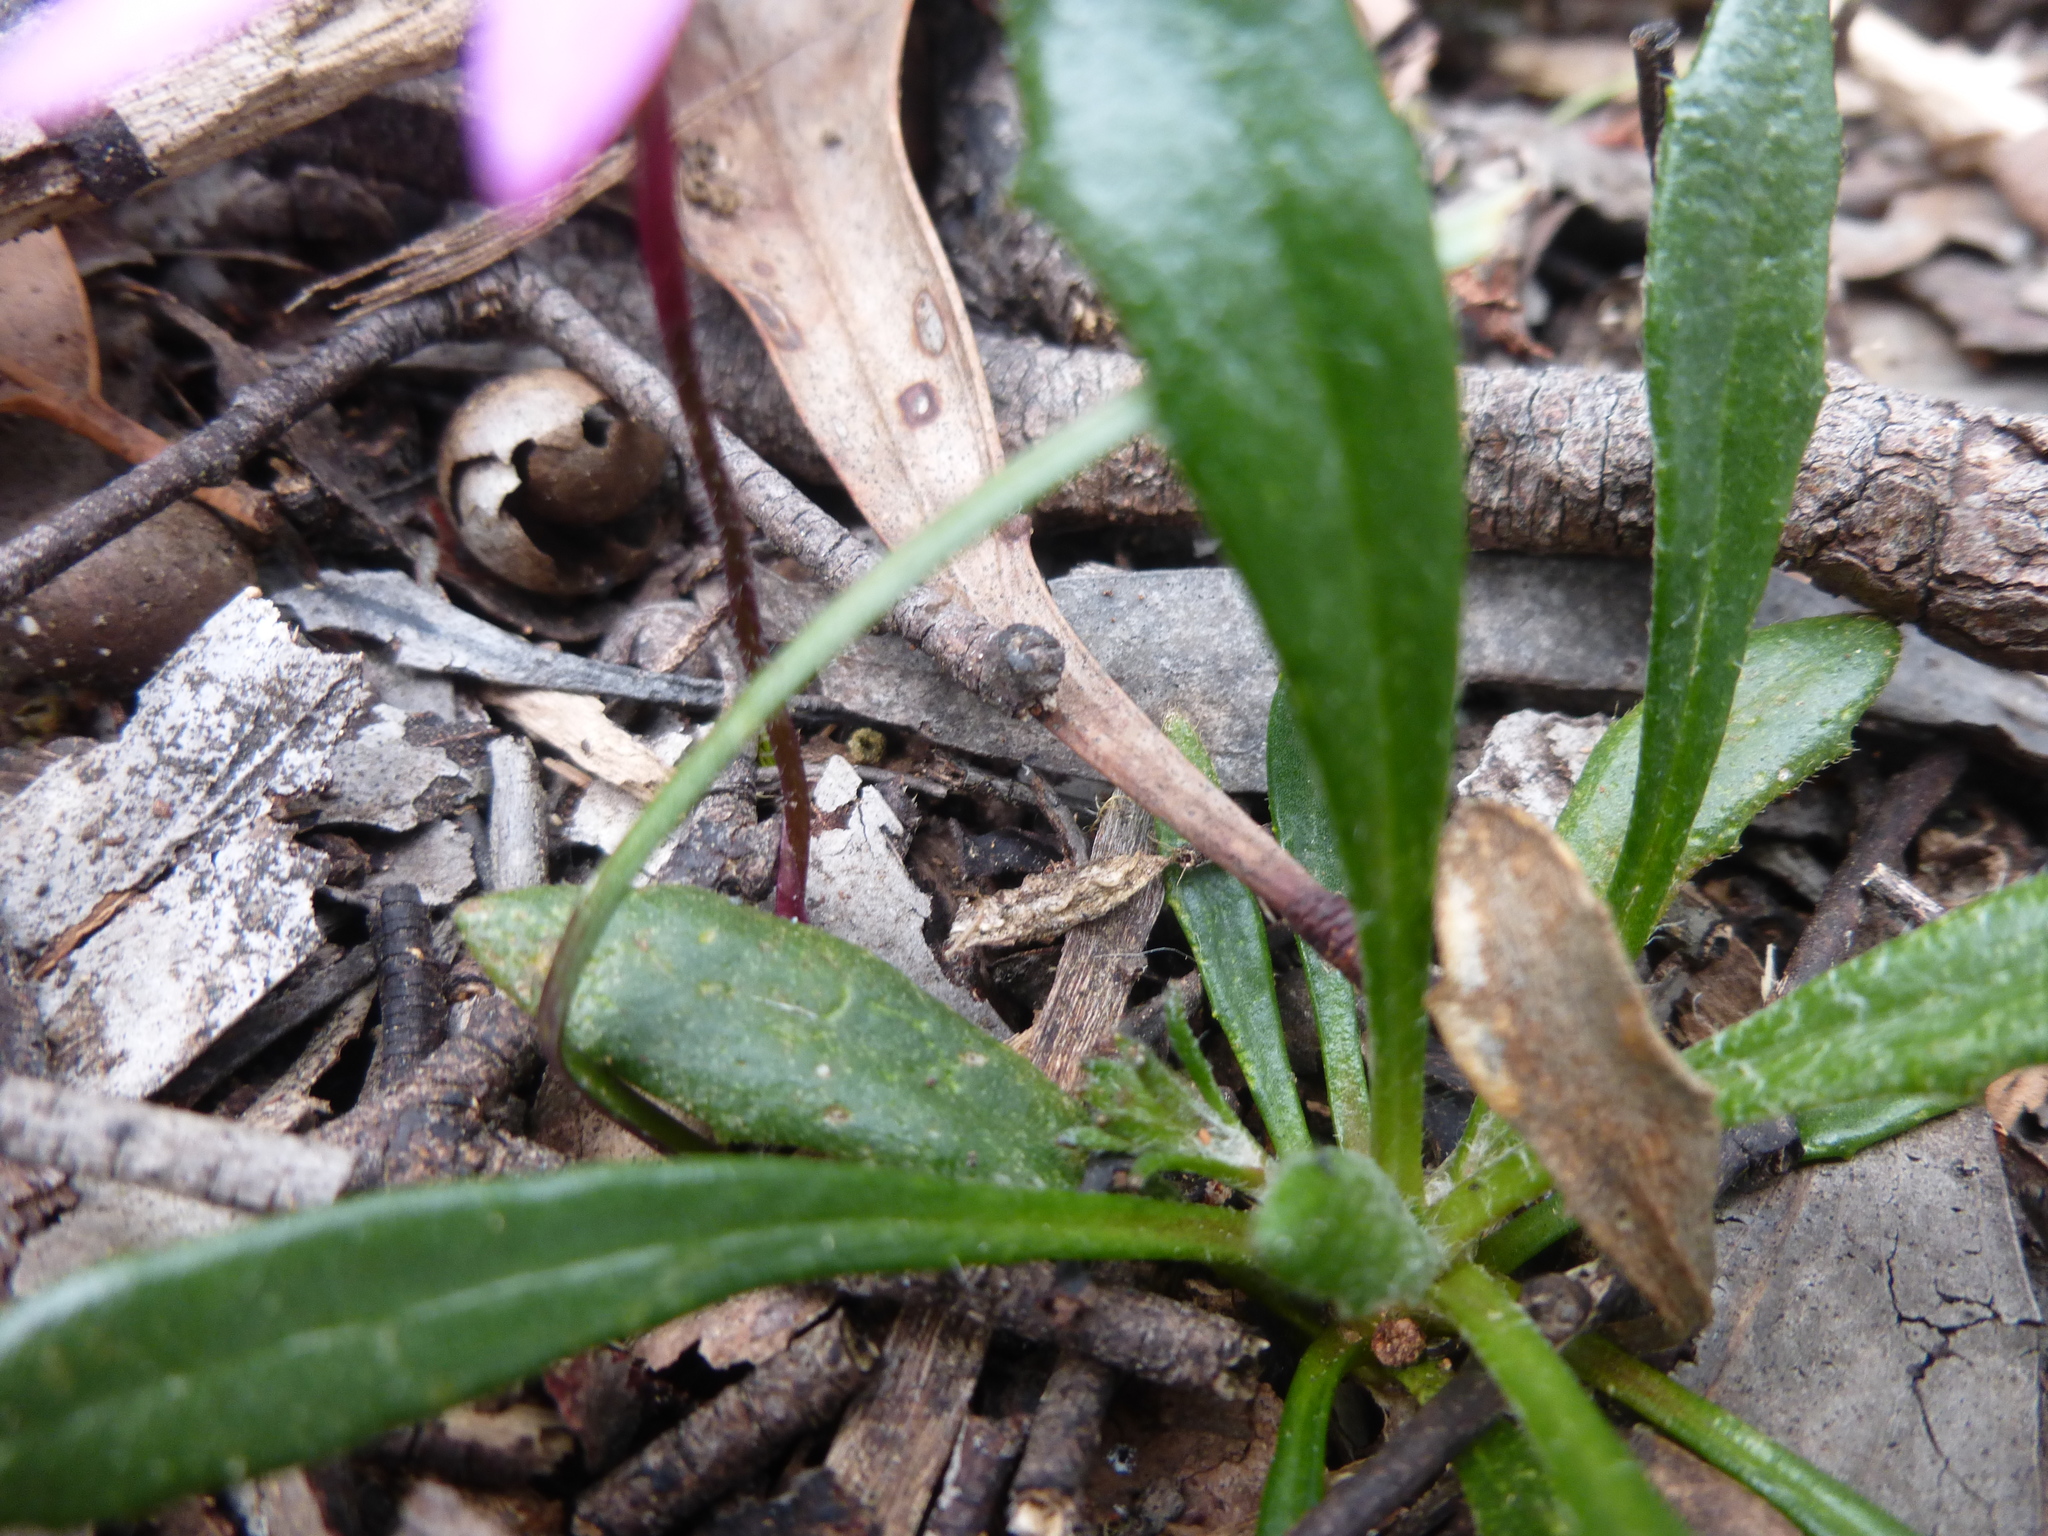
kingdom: Plantae
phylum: Tracheophyta
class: Liliopsida
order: Asparagales
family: Orchidaceae
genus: Caladenia
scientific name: Caladenia fuscata
